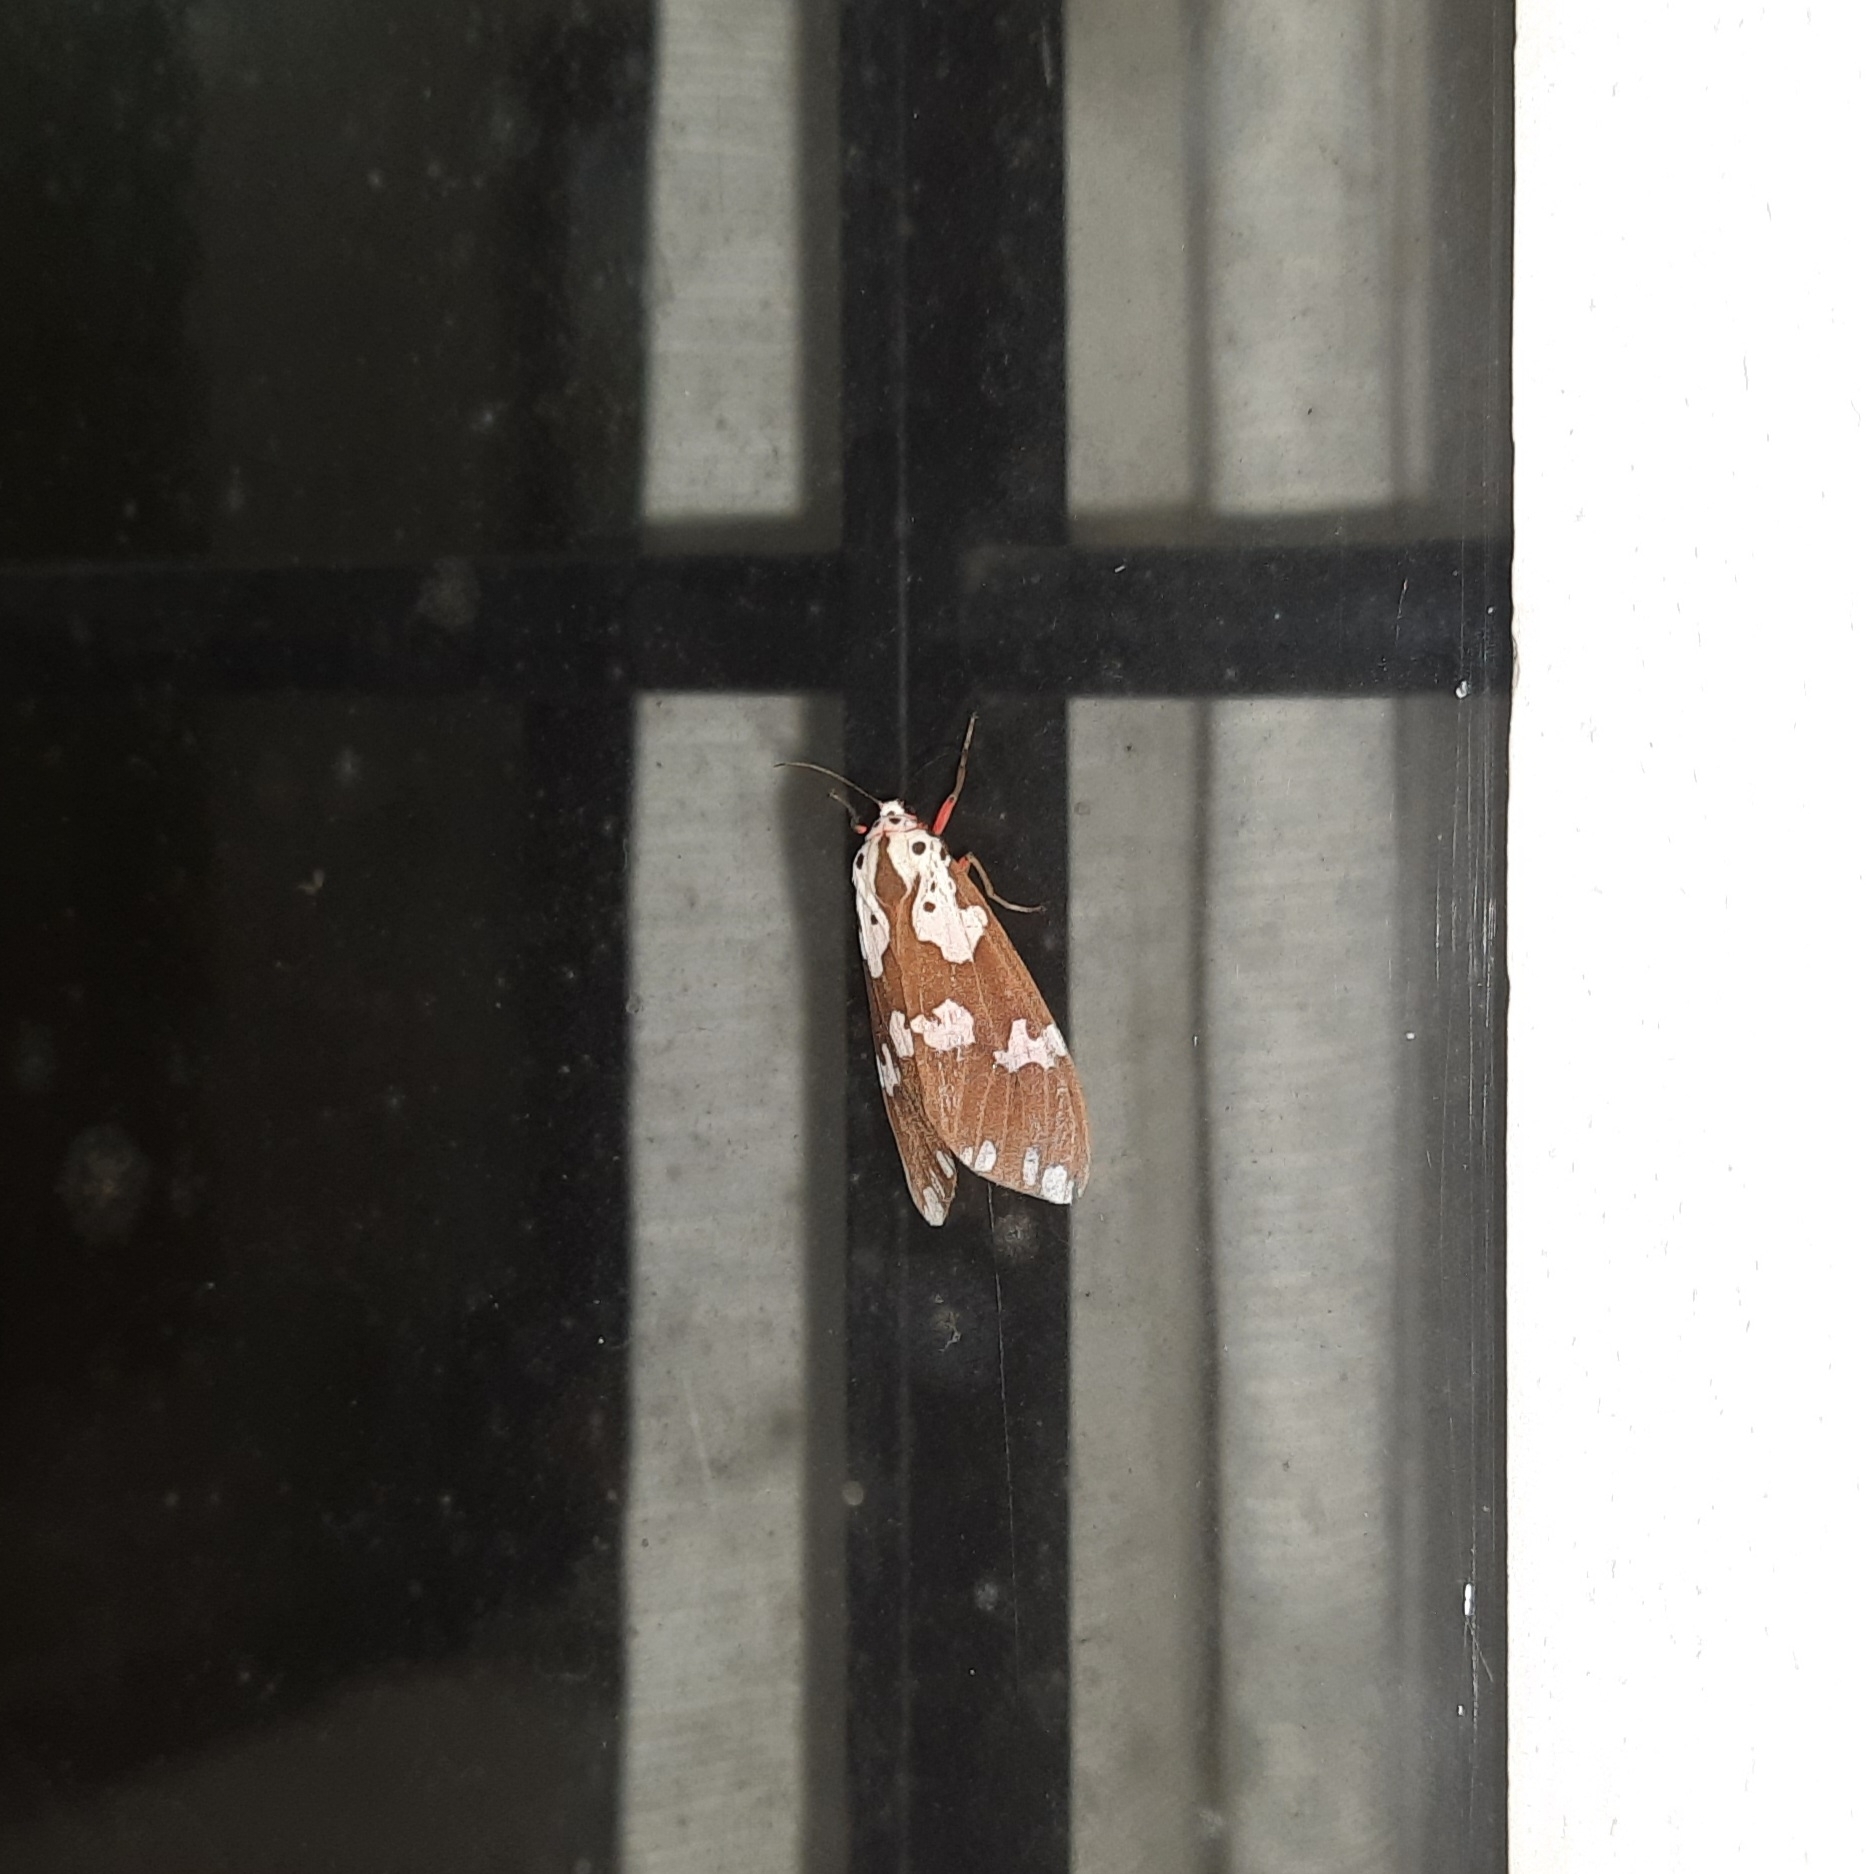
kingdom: Animalia
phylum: Arthropoda
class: Insecta
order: Lepidoptera
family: Erebidae
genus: Pericallia
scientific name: Pericallia
